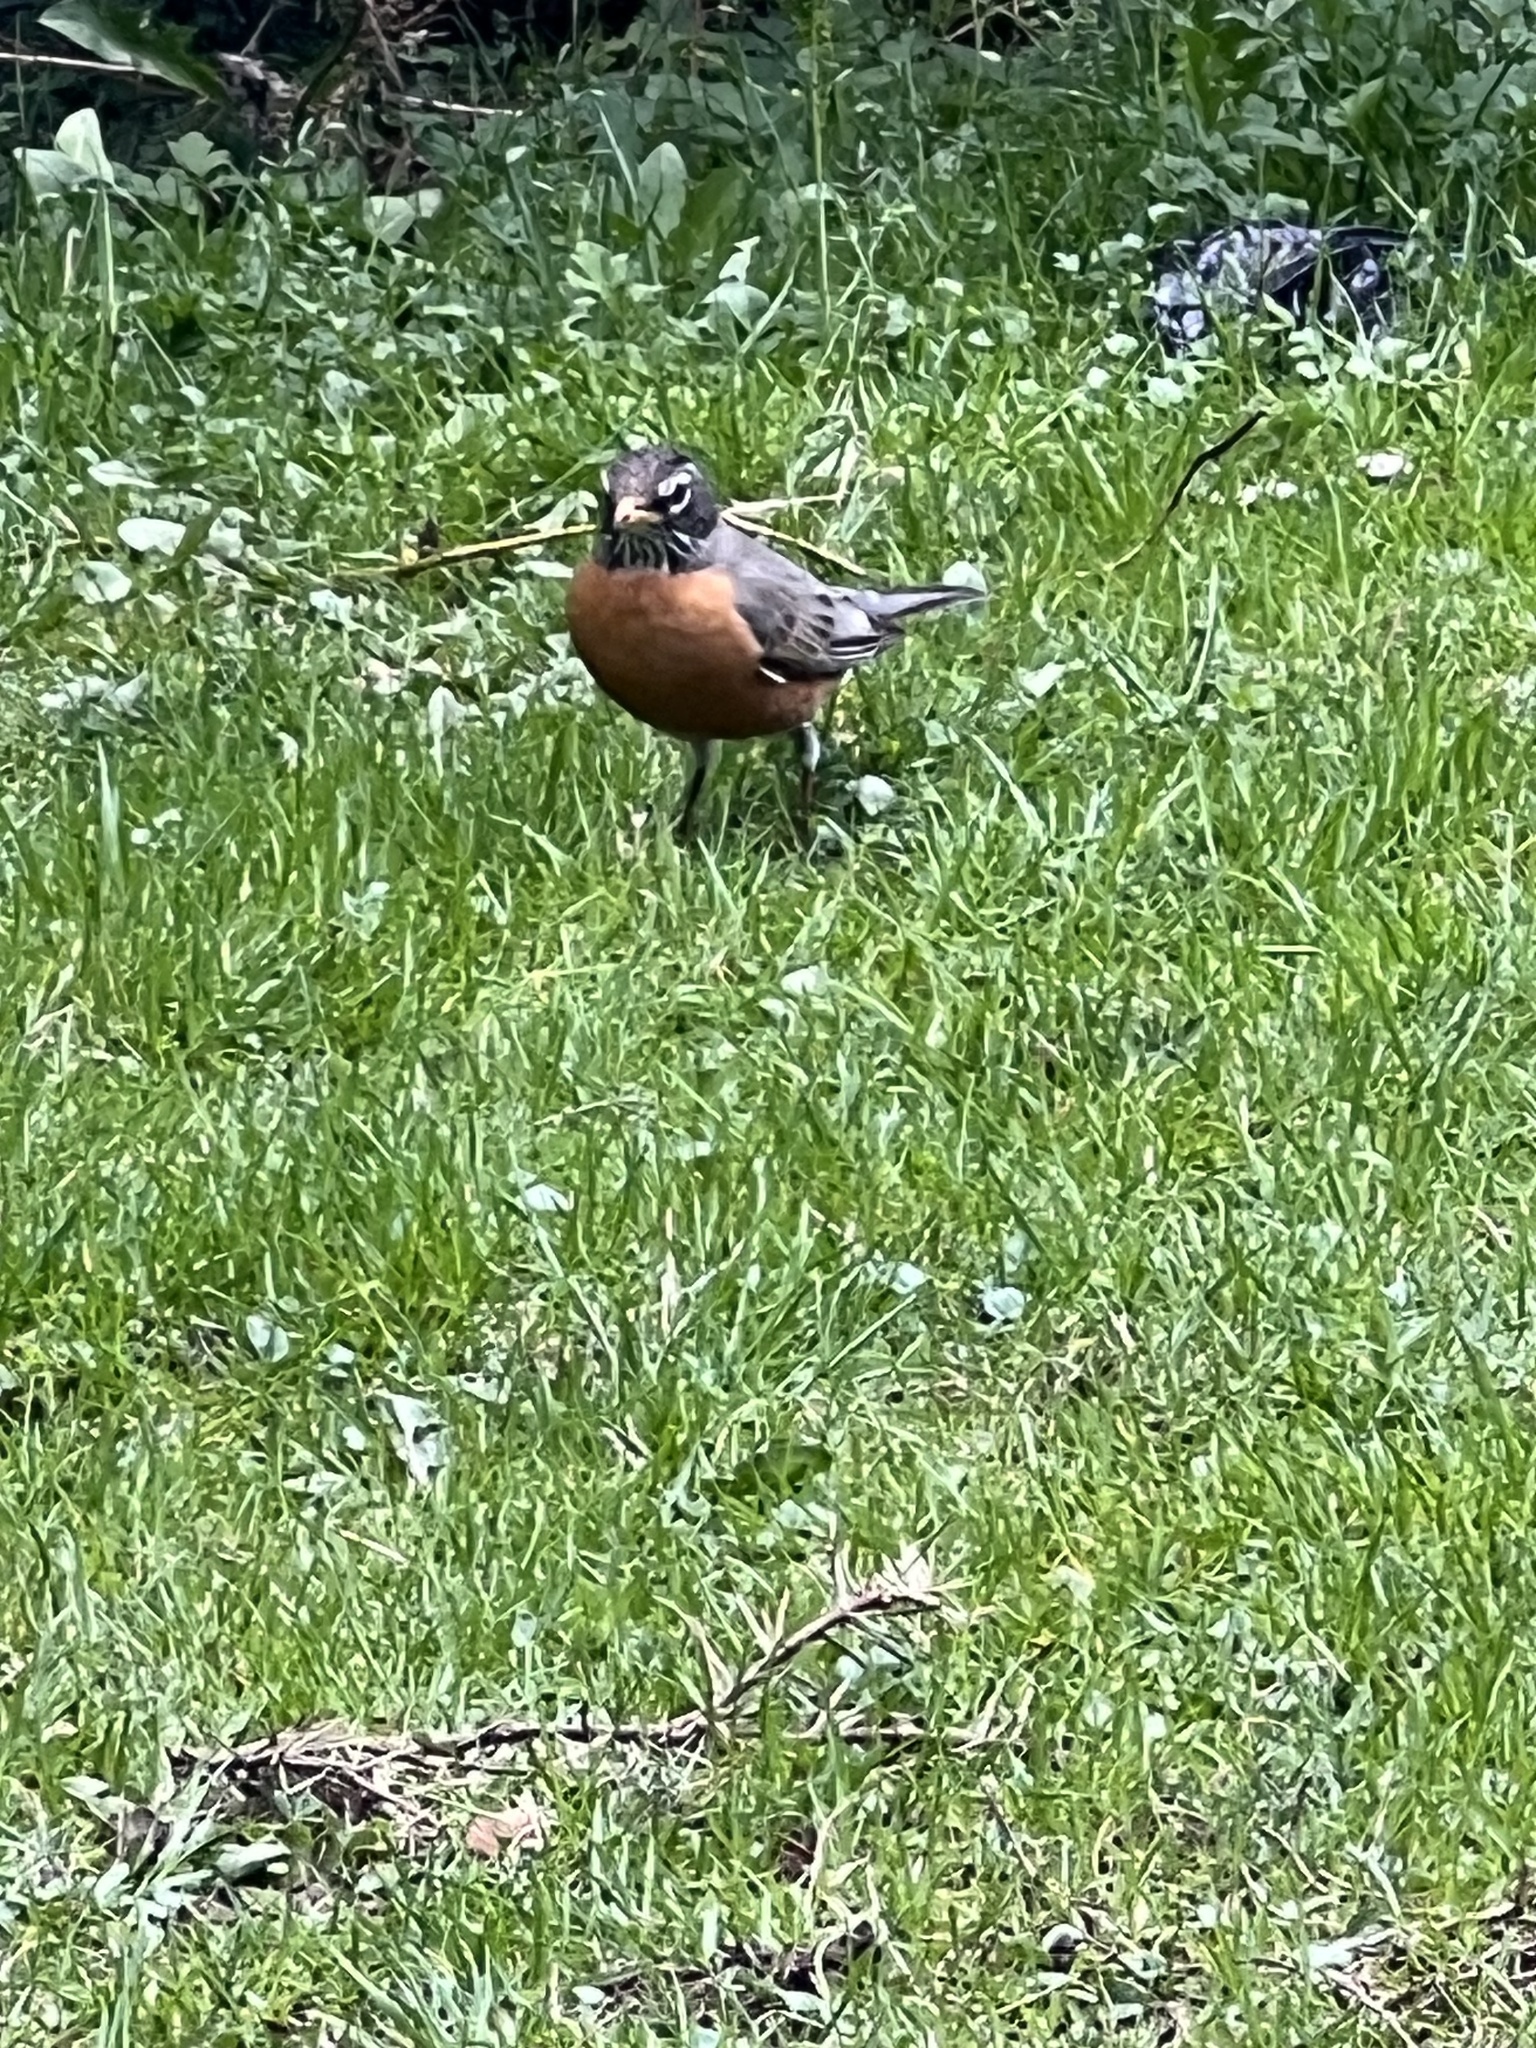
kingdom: Animalia
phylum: Chordata
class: Aves
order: Passeriformes
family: Turdidae
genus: Turdus
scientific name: Turdus migratorius
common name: American robin
